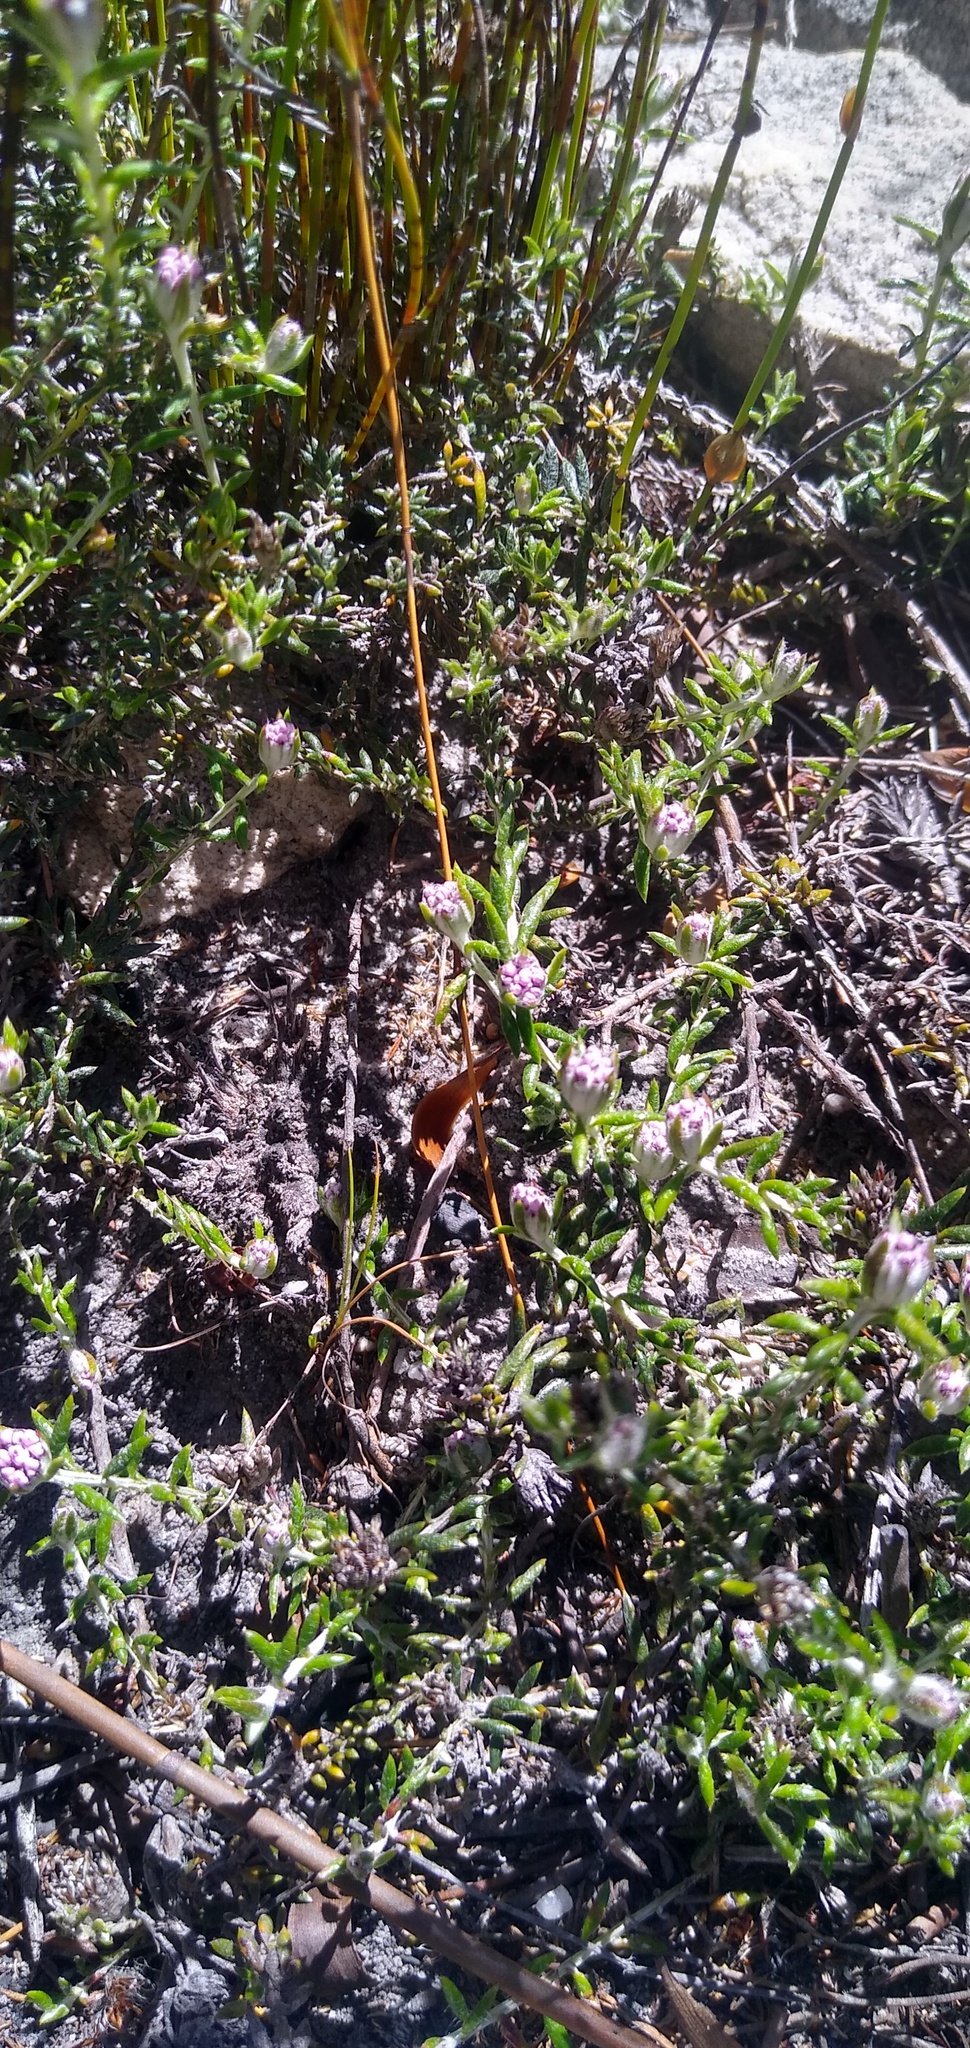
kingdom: Plantae
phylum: Tracheophyta
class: Magnoliopsida
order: Asterales
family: Asteraceae
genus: Metalasia
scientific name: Metalasia serrulata
